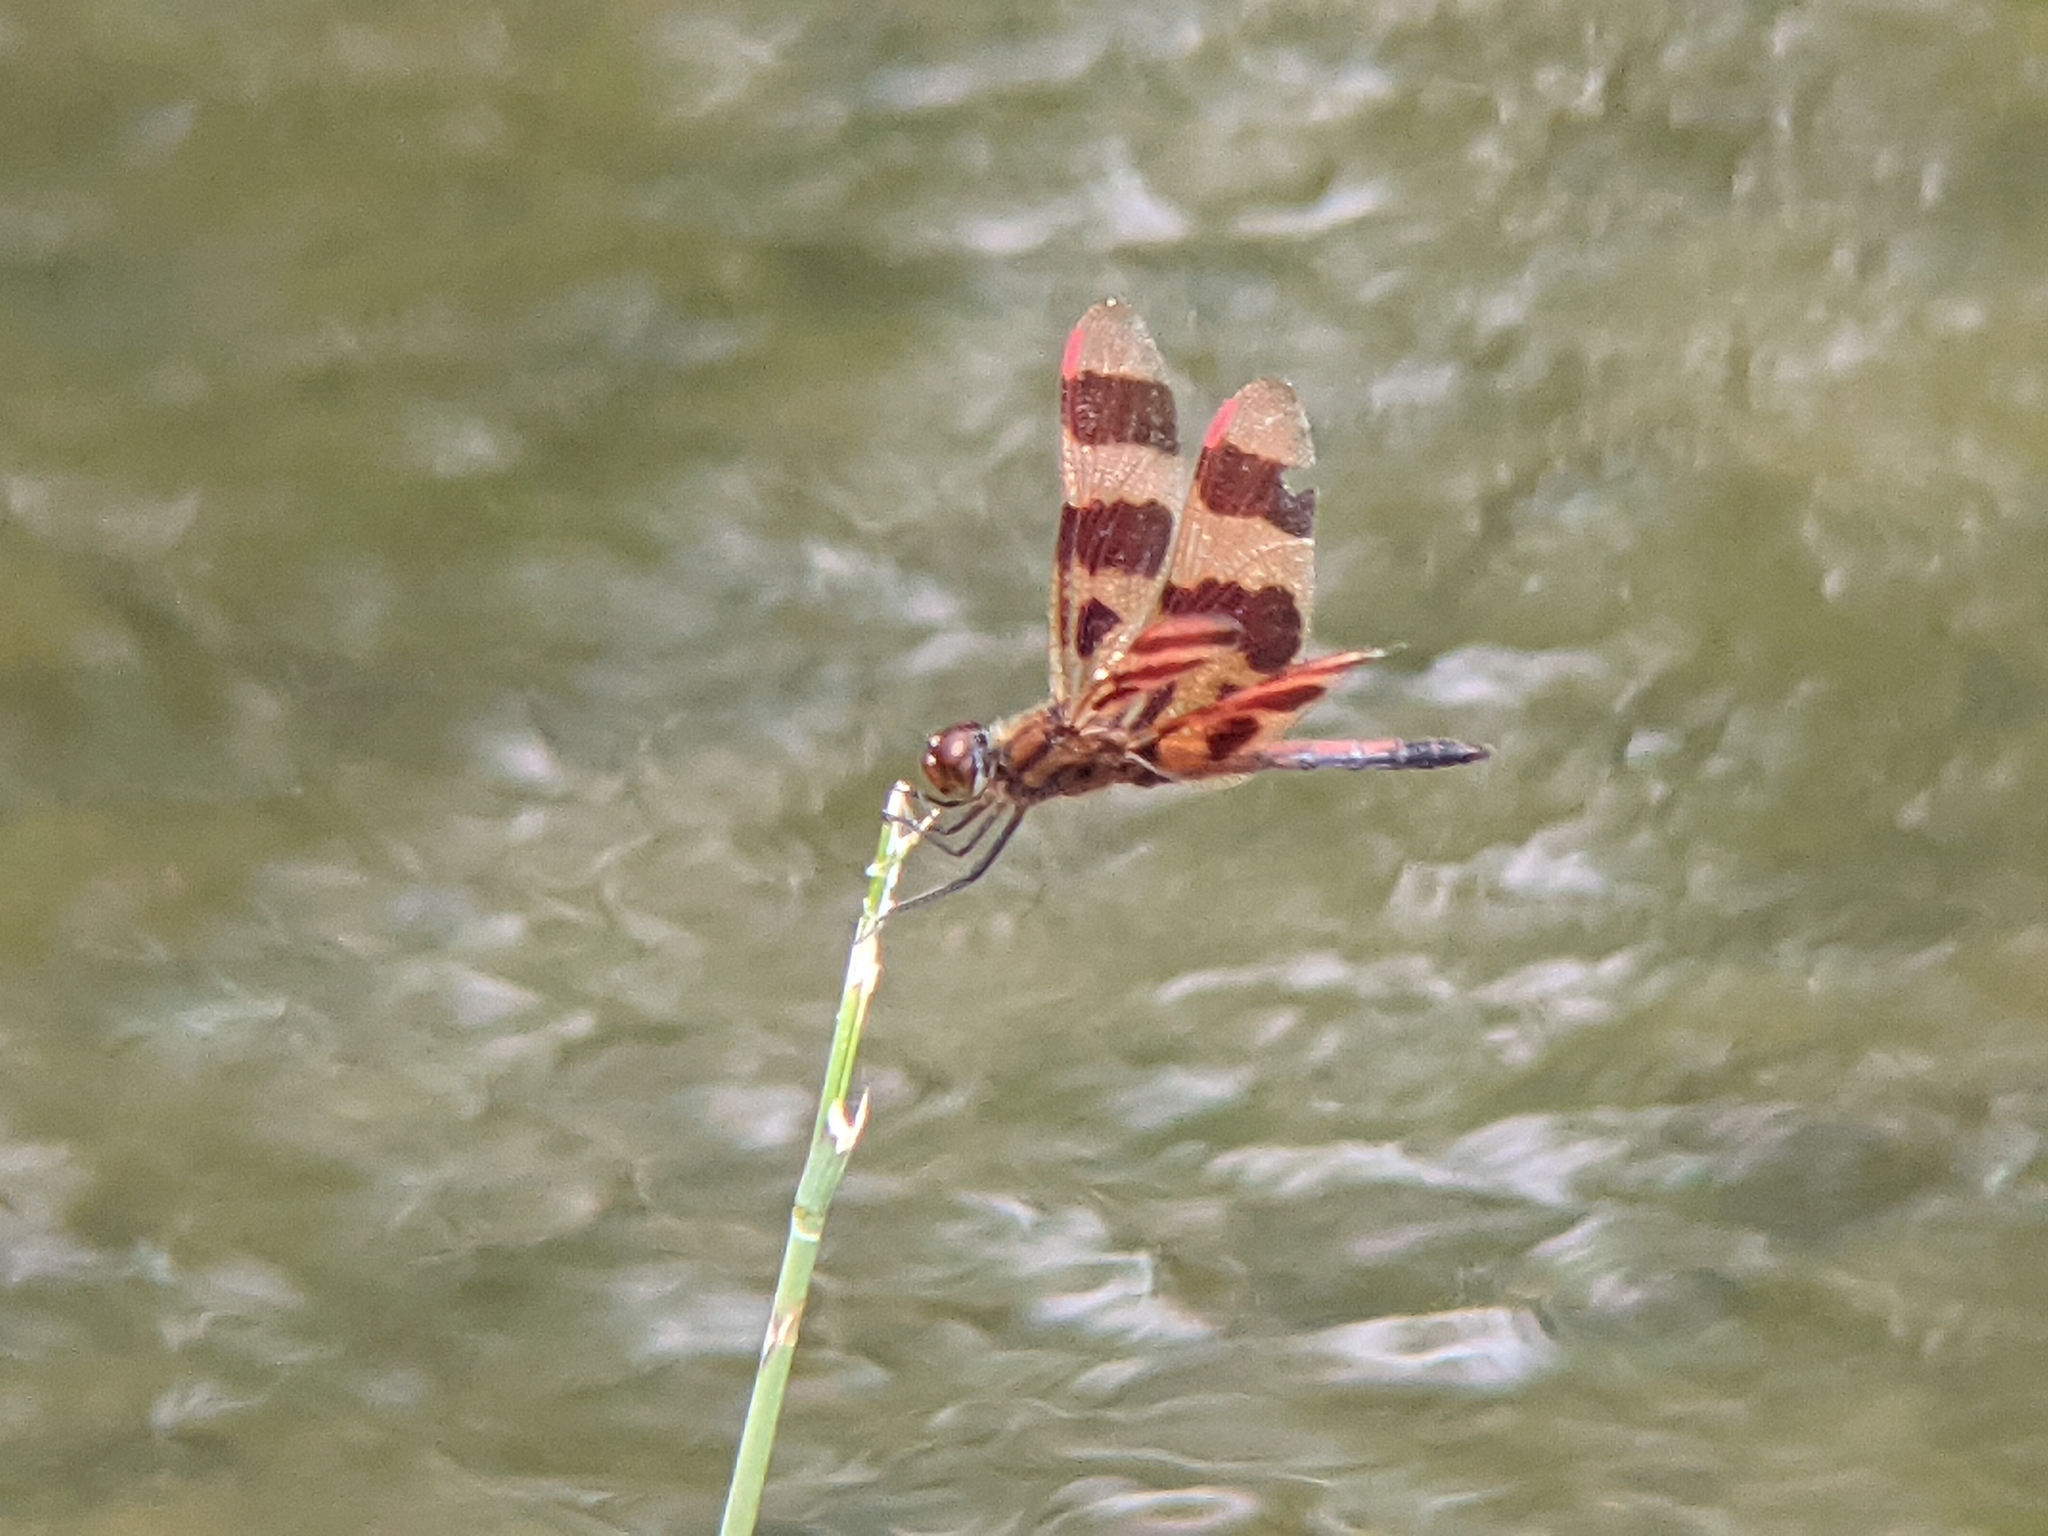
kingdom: Animalia
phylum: Arthropoda
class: Insecta
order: Odonata
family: Libellulidae
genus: Celithemis
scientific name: Celithemis eponina
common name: Halloween pennant
